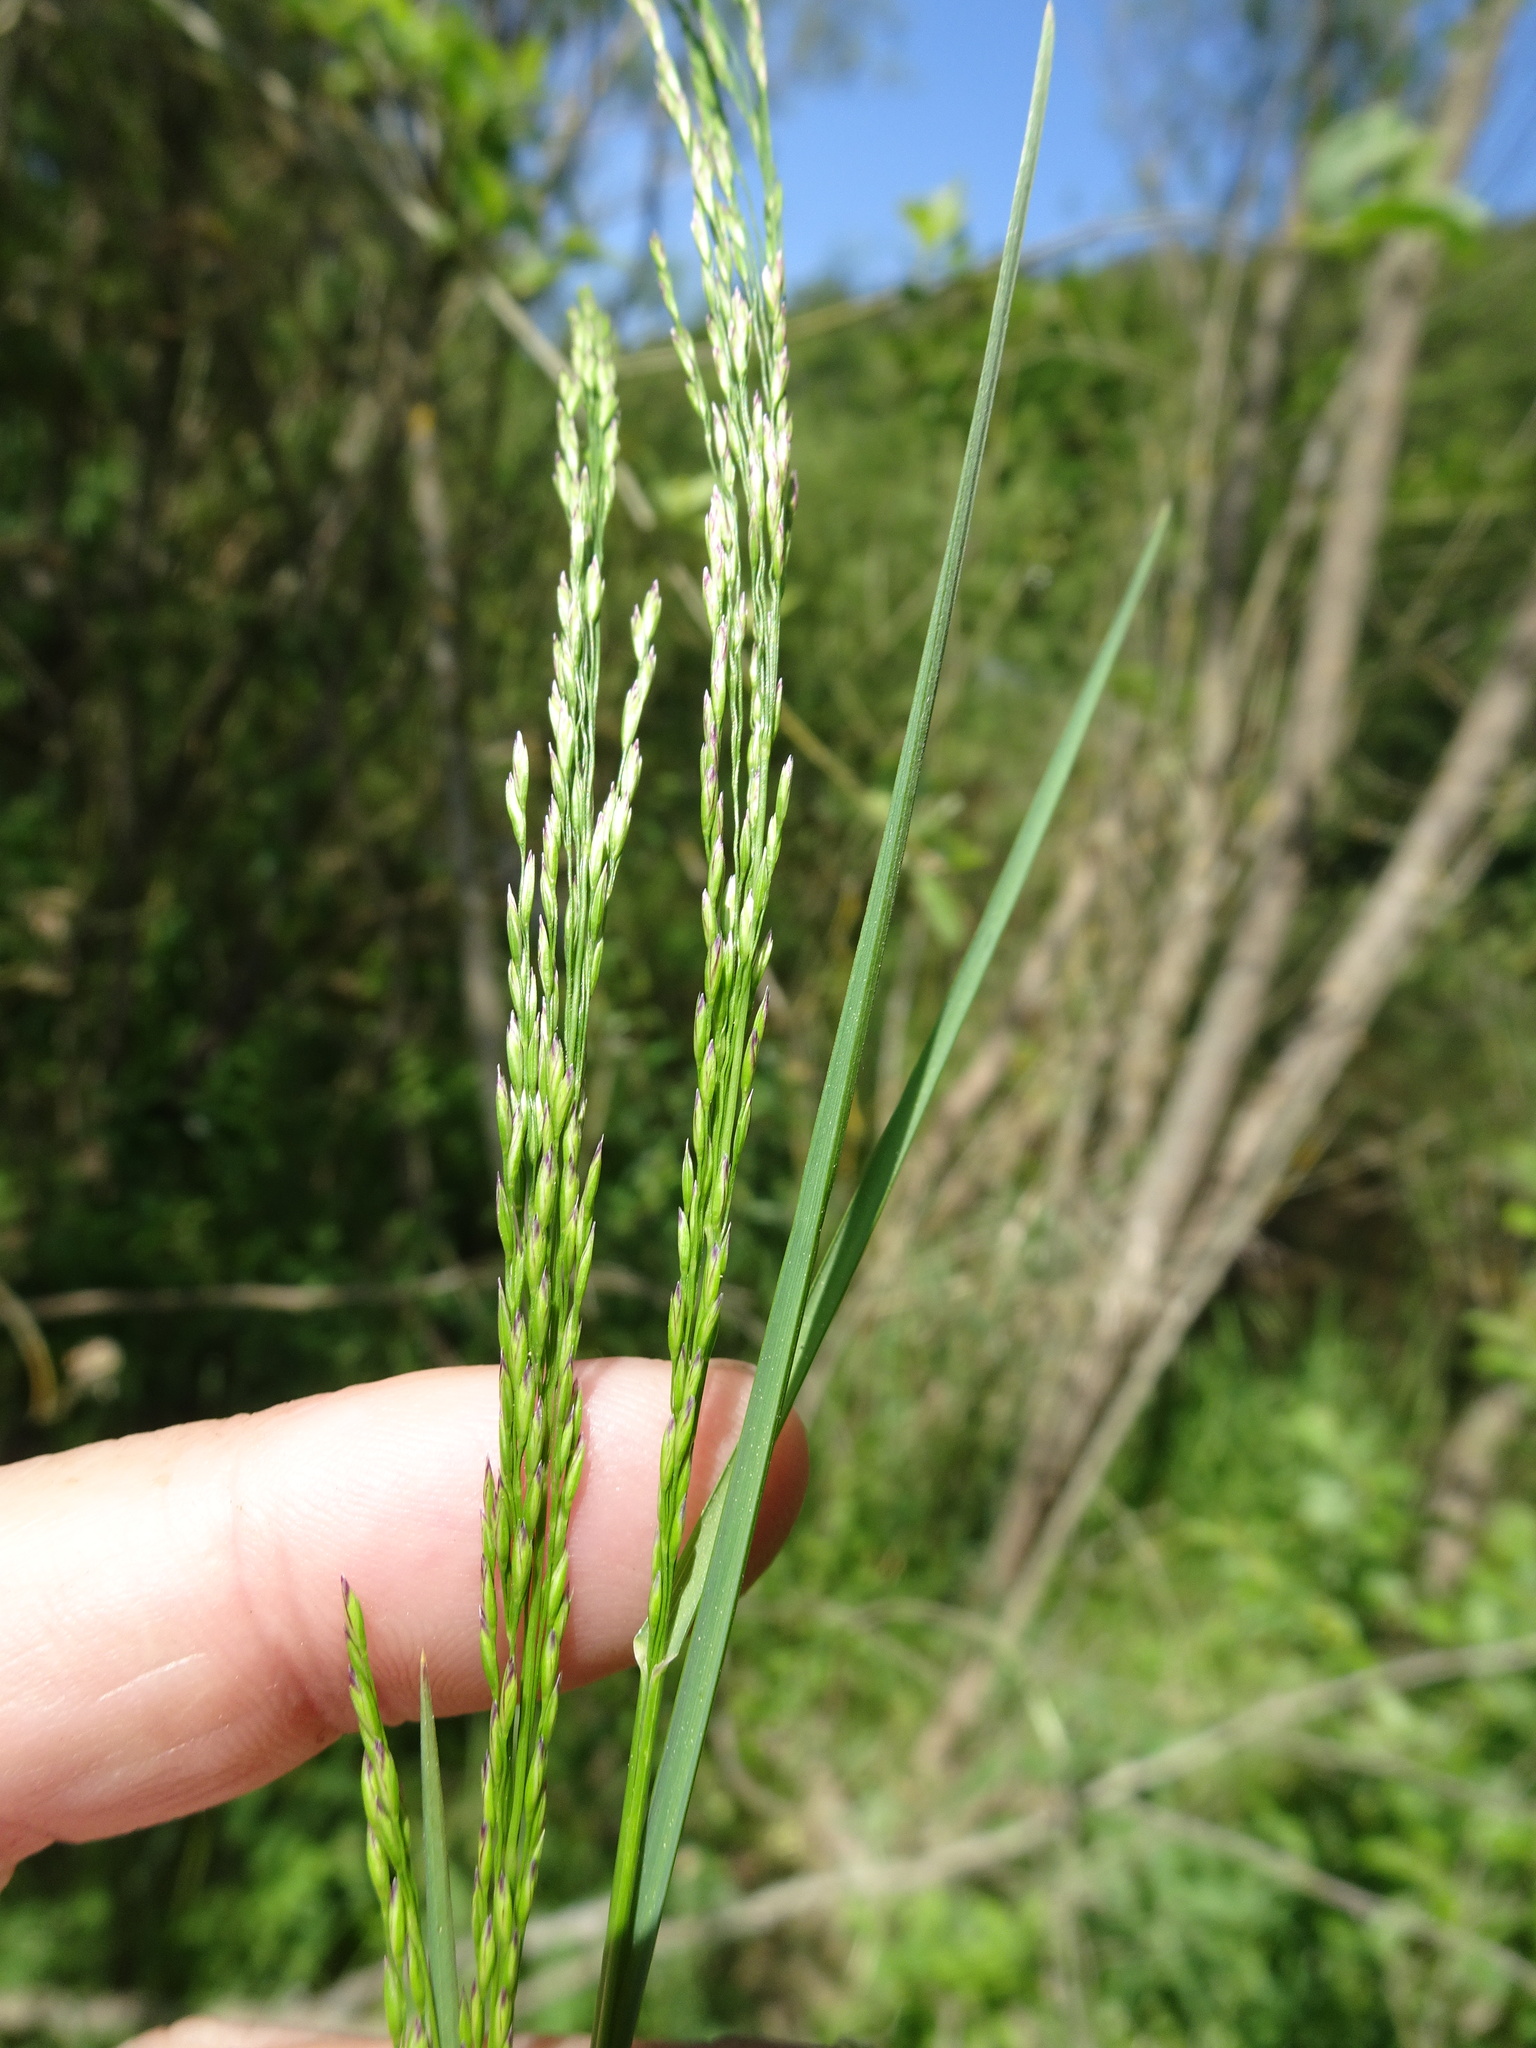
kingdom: Plantae
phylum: Tracheophyta
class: Liliopsida
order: Poales
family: Poaceae
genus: Poa
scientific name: Poa nemoralis
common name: Wood bluegrass
